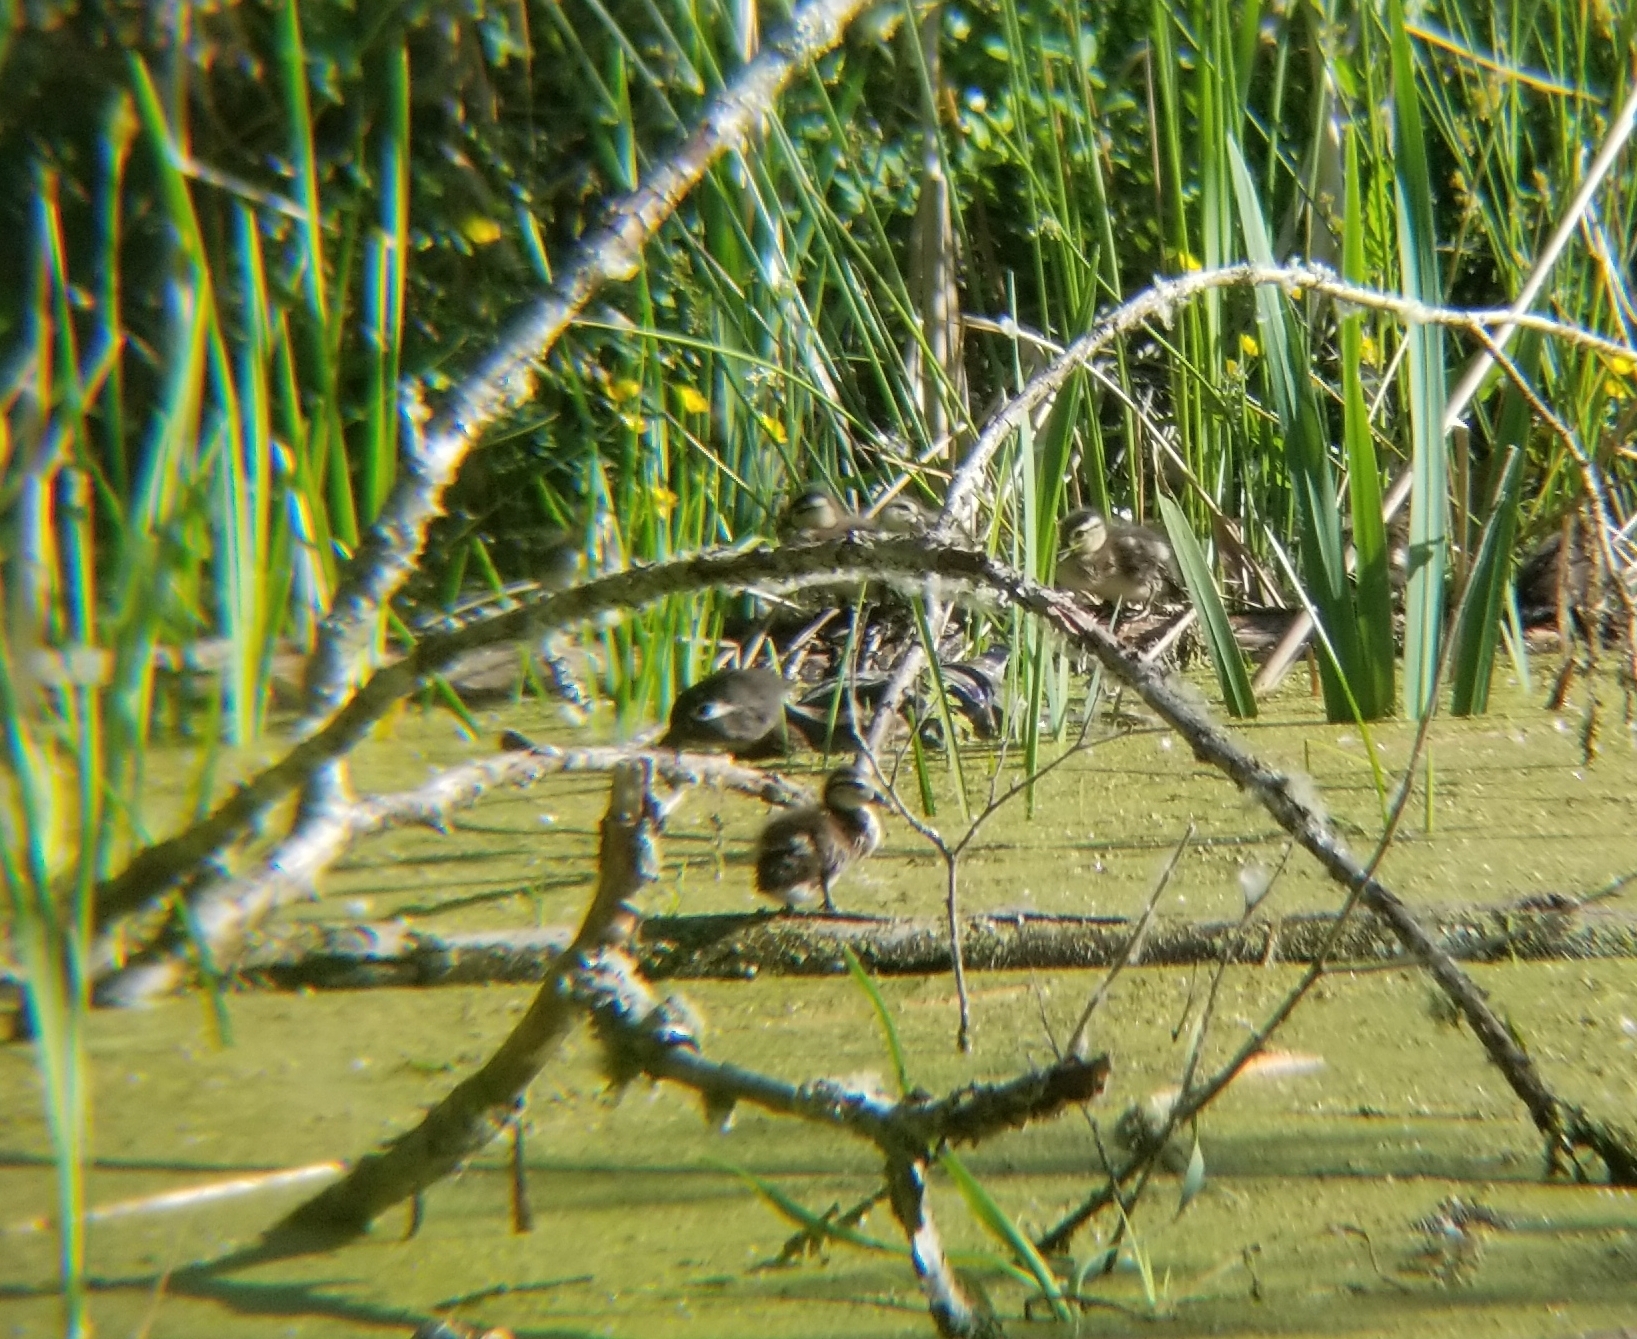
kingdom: Animalia
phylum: Chordata
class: Aves
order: Anseriformes
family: Anatidae
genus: Aix
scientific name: Aix sponsa
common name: Wood duck
